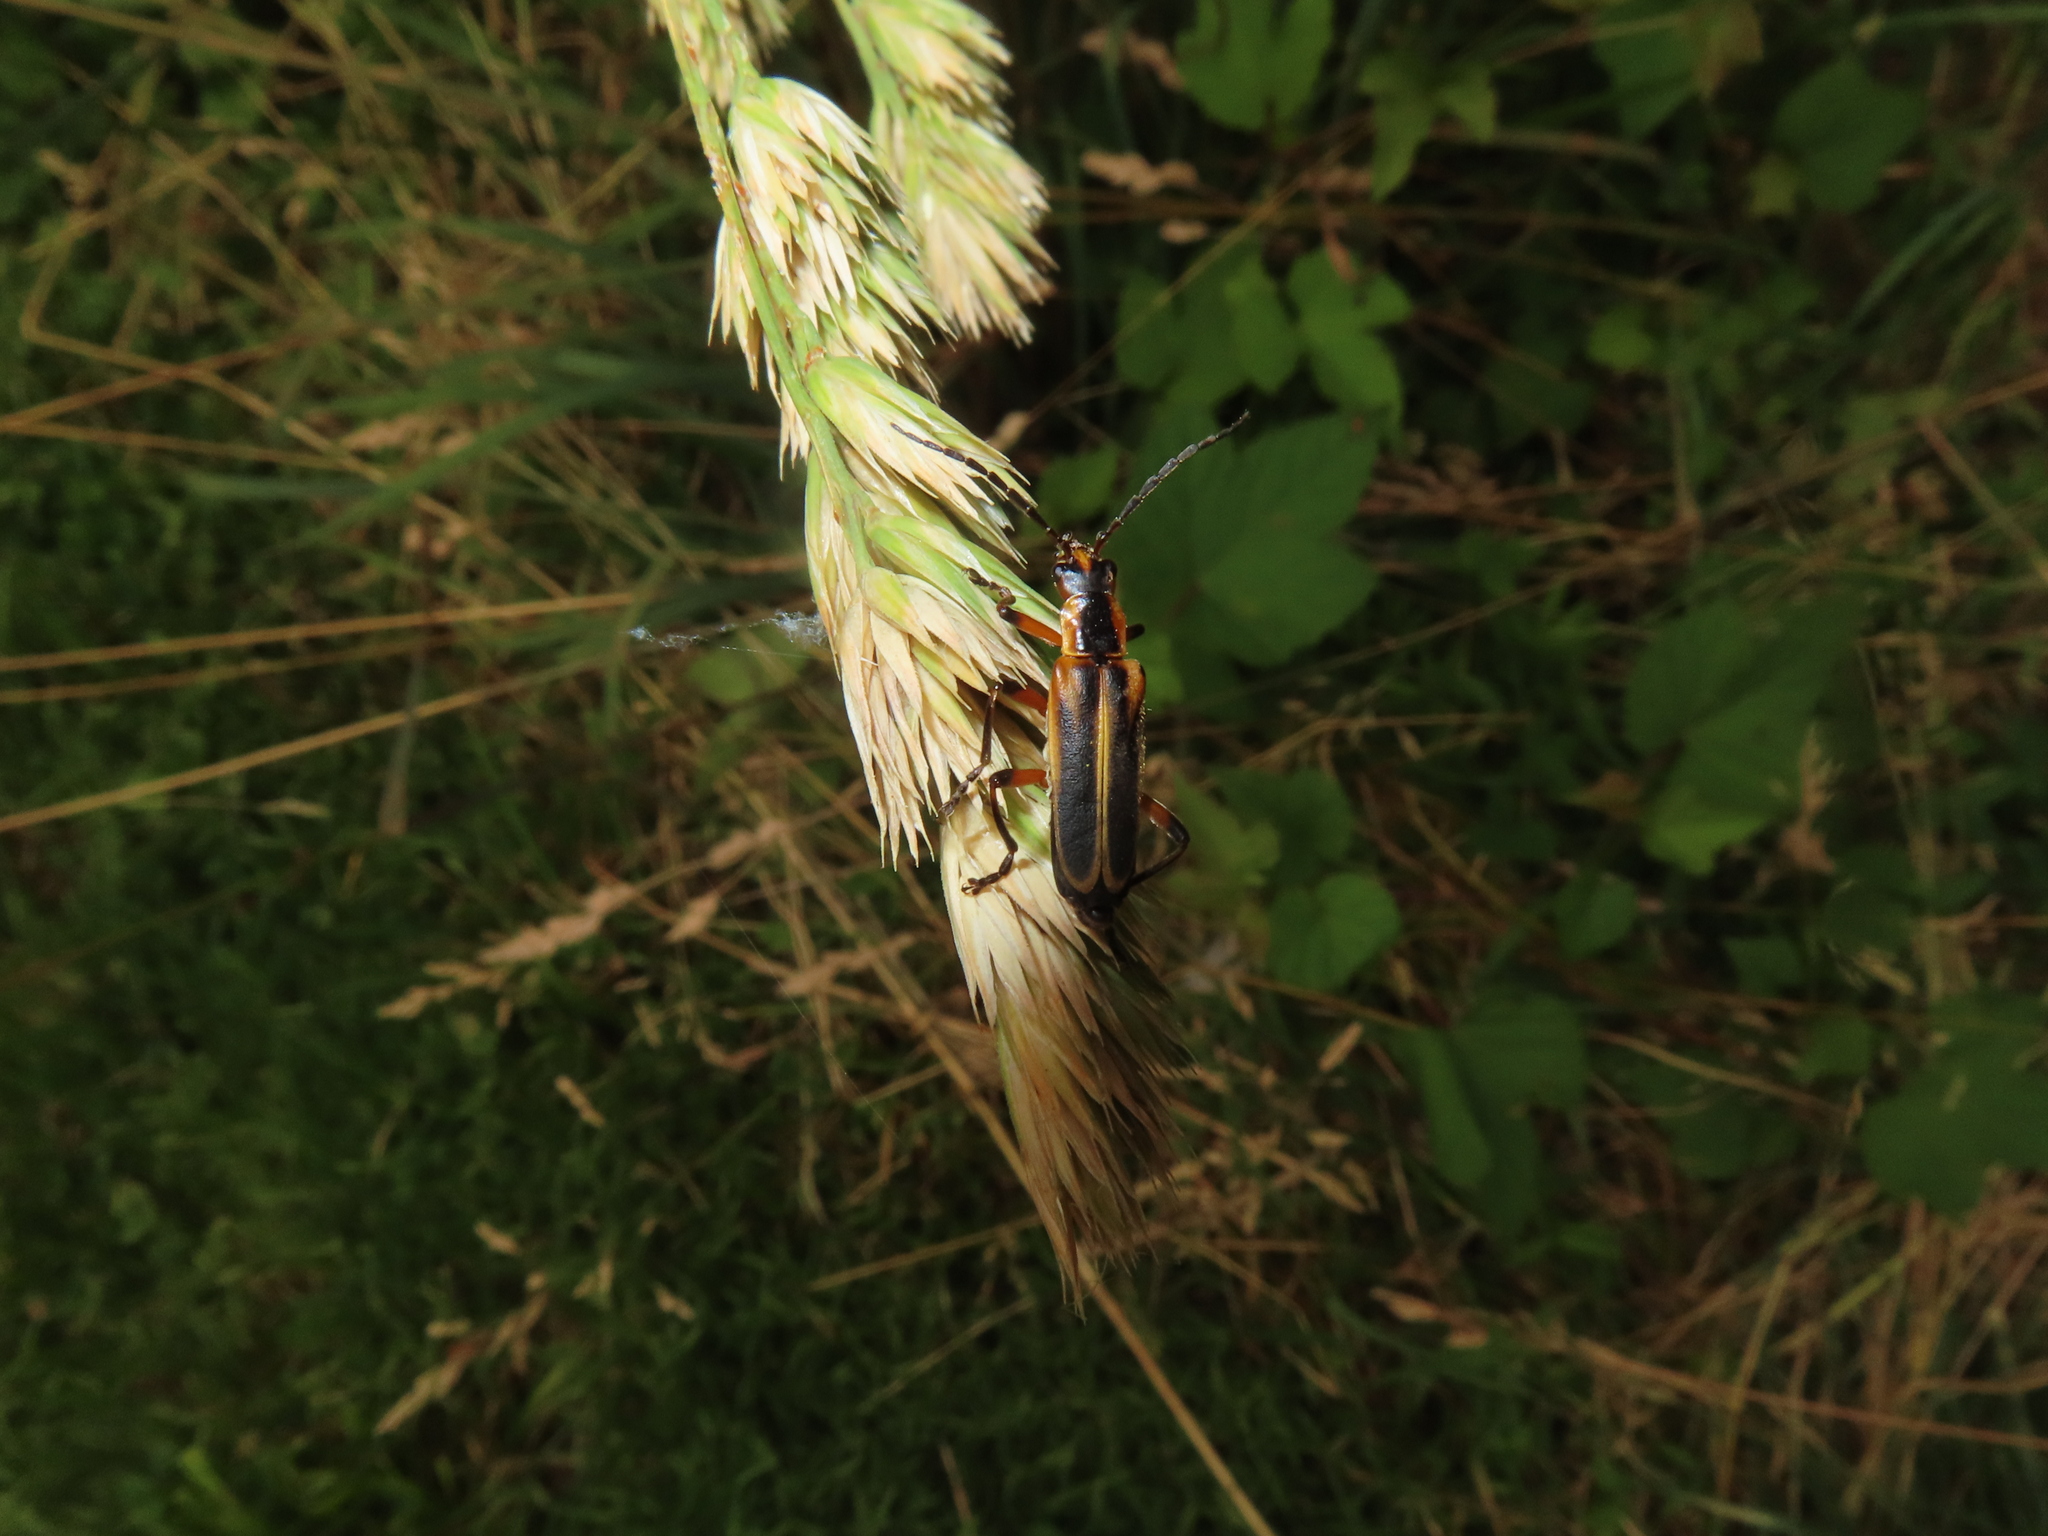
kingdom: Animalia
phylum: Arthropoda
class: Insecta
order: Coleoptera
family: Cantharidae
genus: Chauliognathus
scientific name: Chauliognathus marginatus
